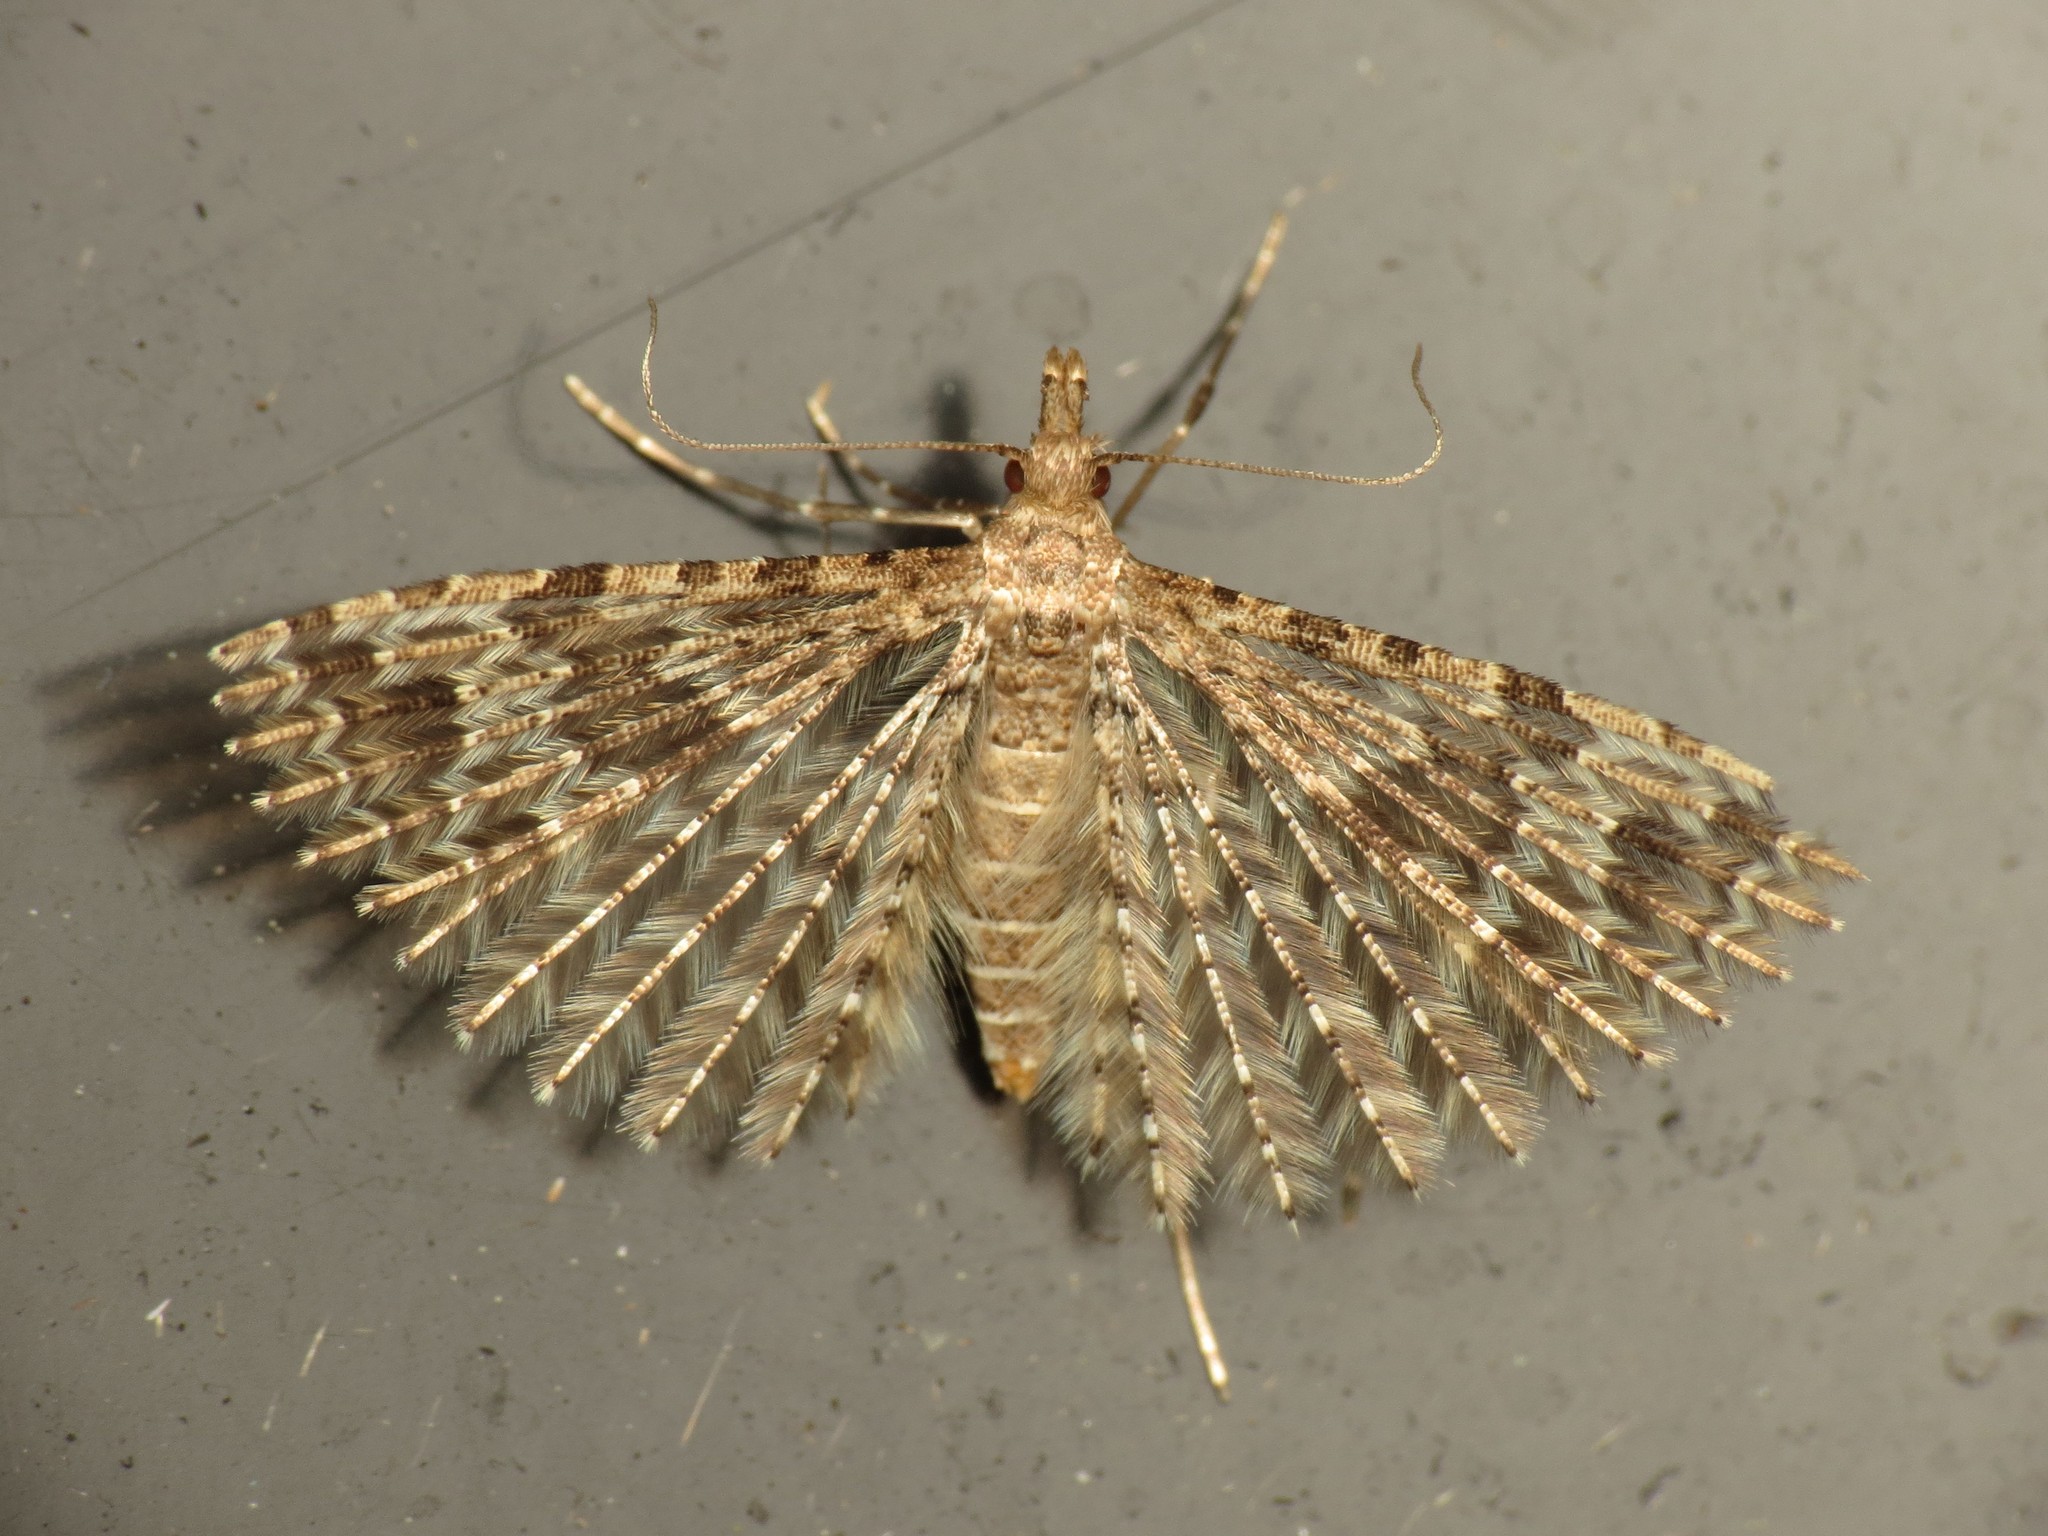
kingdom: Animalia
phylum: Arthropoda
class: Insecta
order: Lepidoptera
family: Alucitidae
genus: Alucita
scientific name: Alucita hexadactyla
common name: Twenty-plume moth
